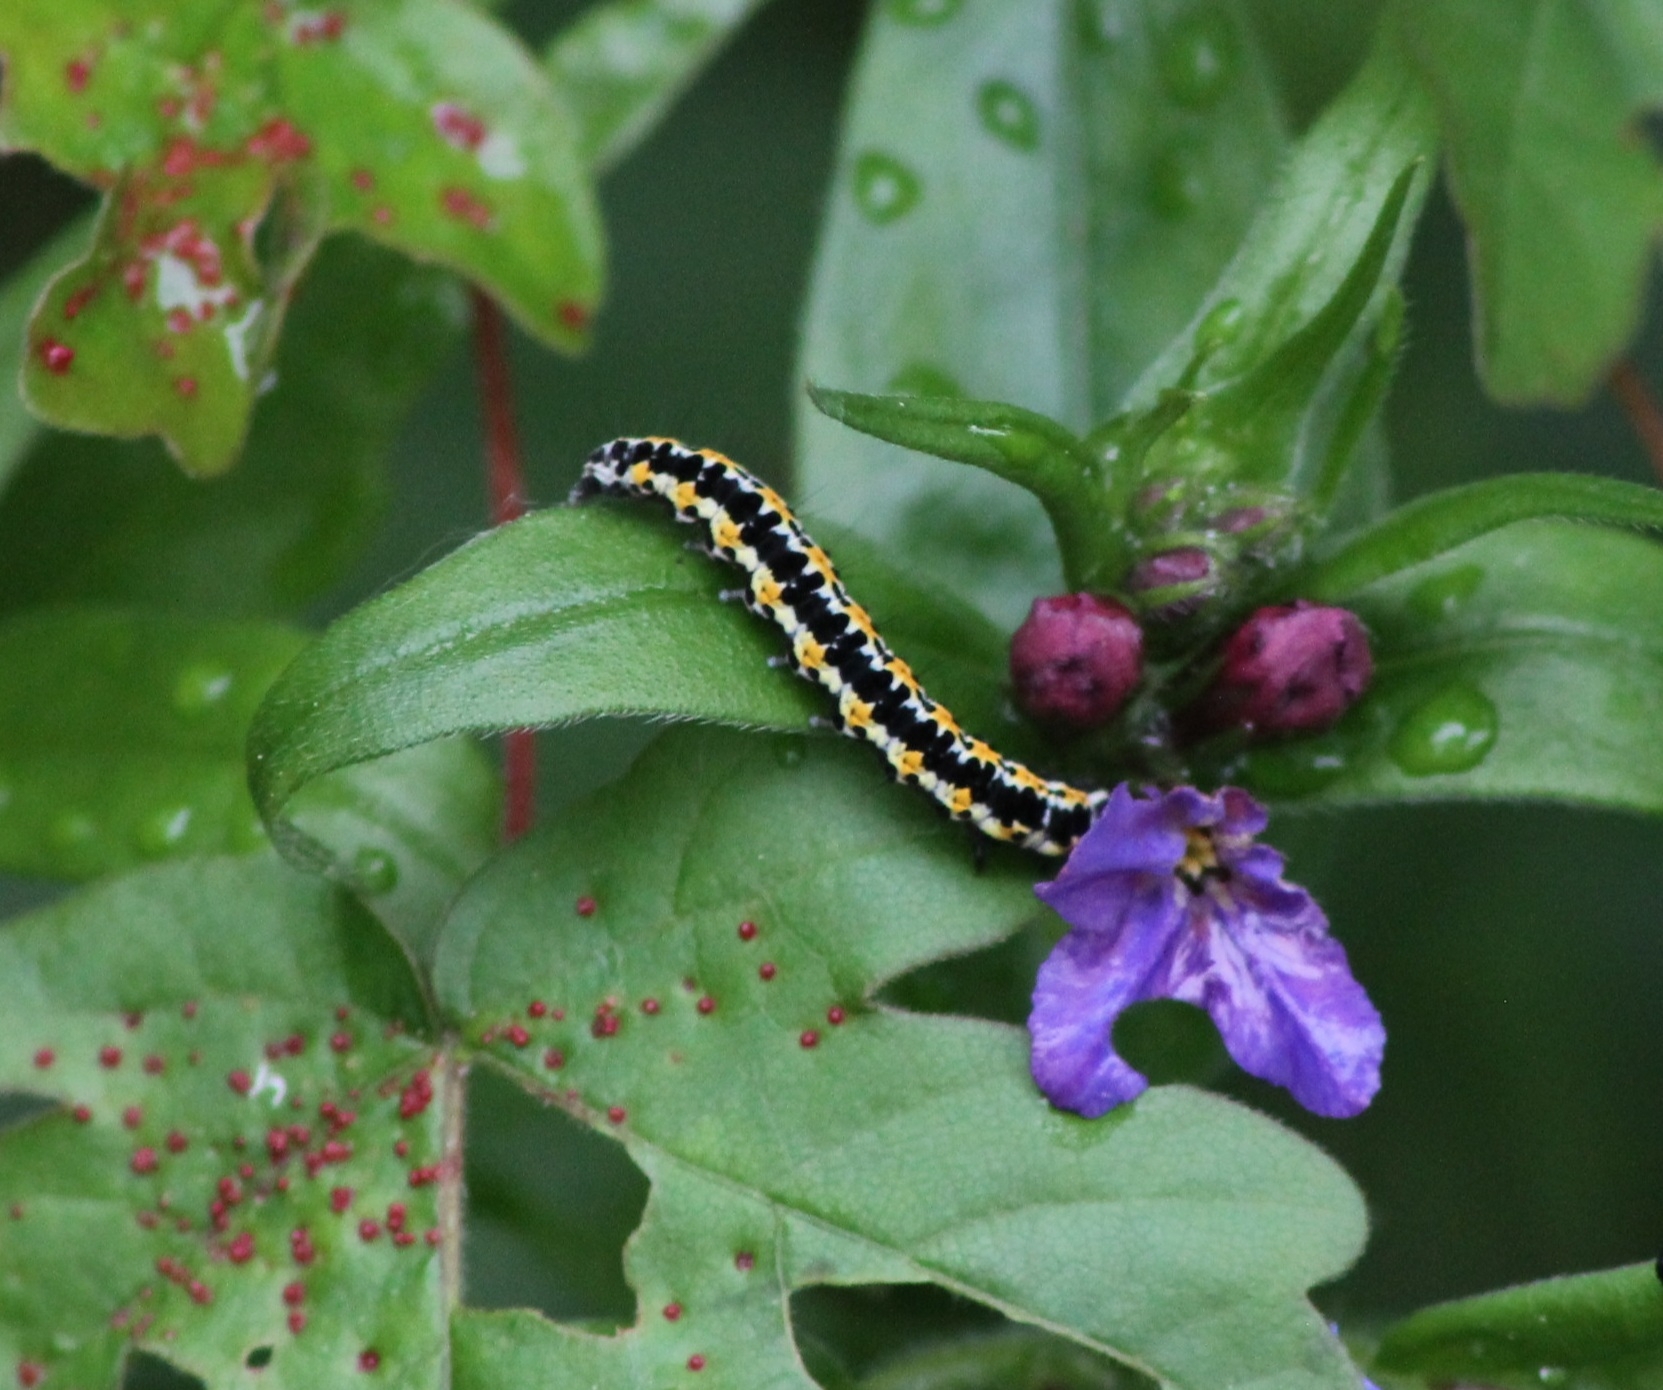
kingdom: Animalia
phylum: Arthropoda
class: Insecta
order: Lepidoptera
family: Ethmiidae
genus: Ethmia
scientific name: Ethmia pusiella
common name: Striped ermel
